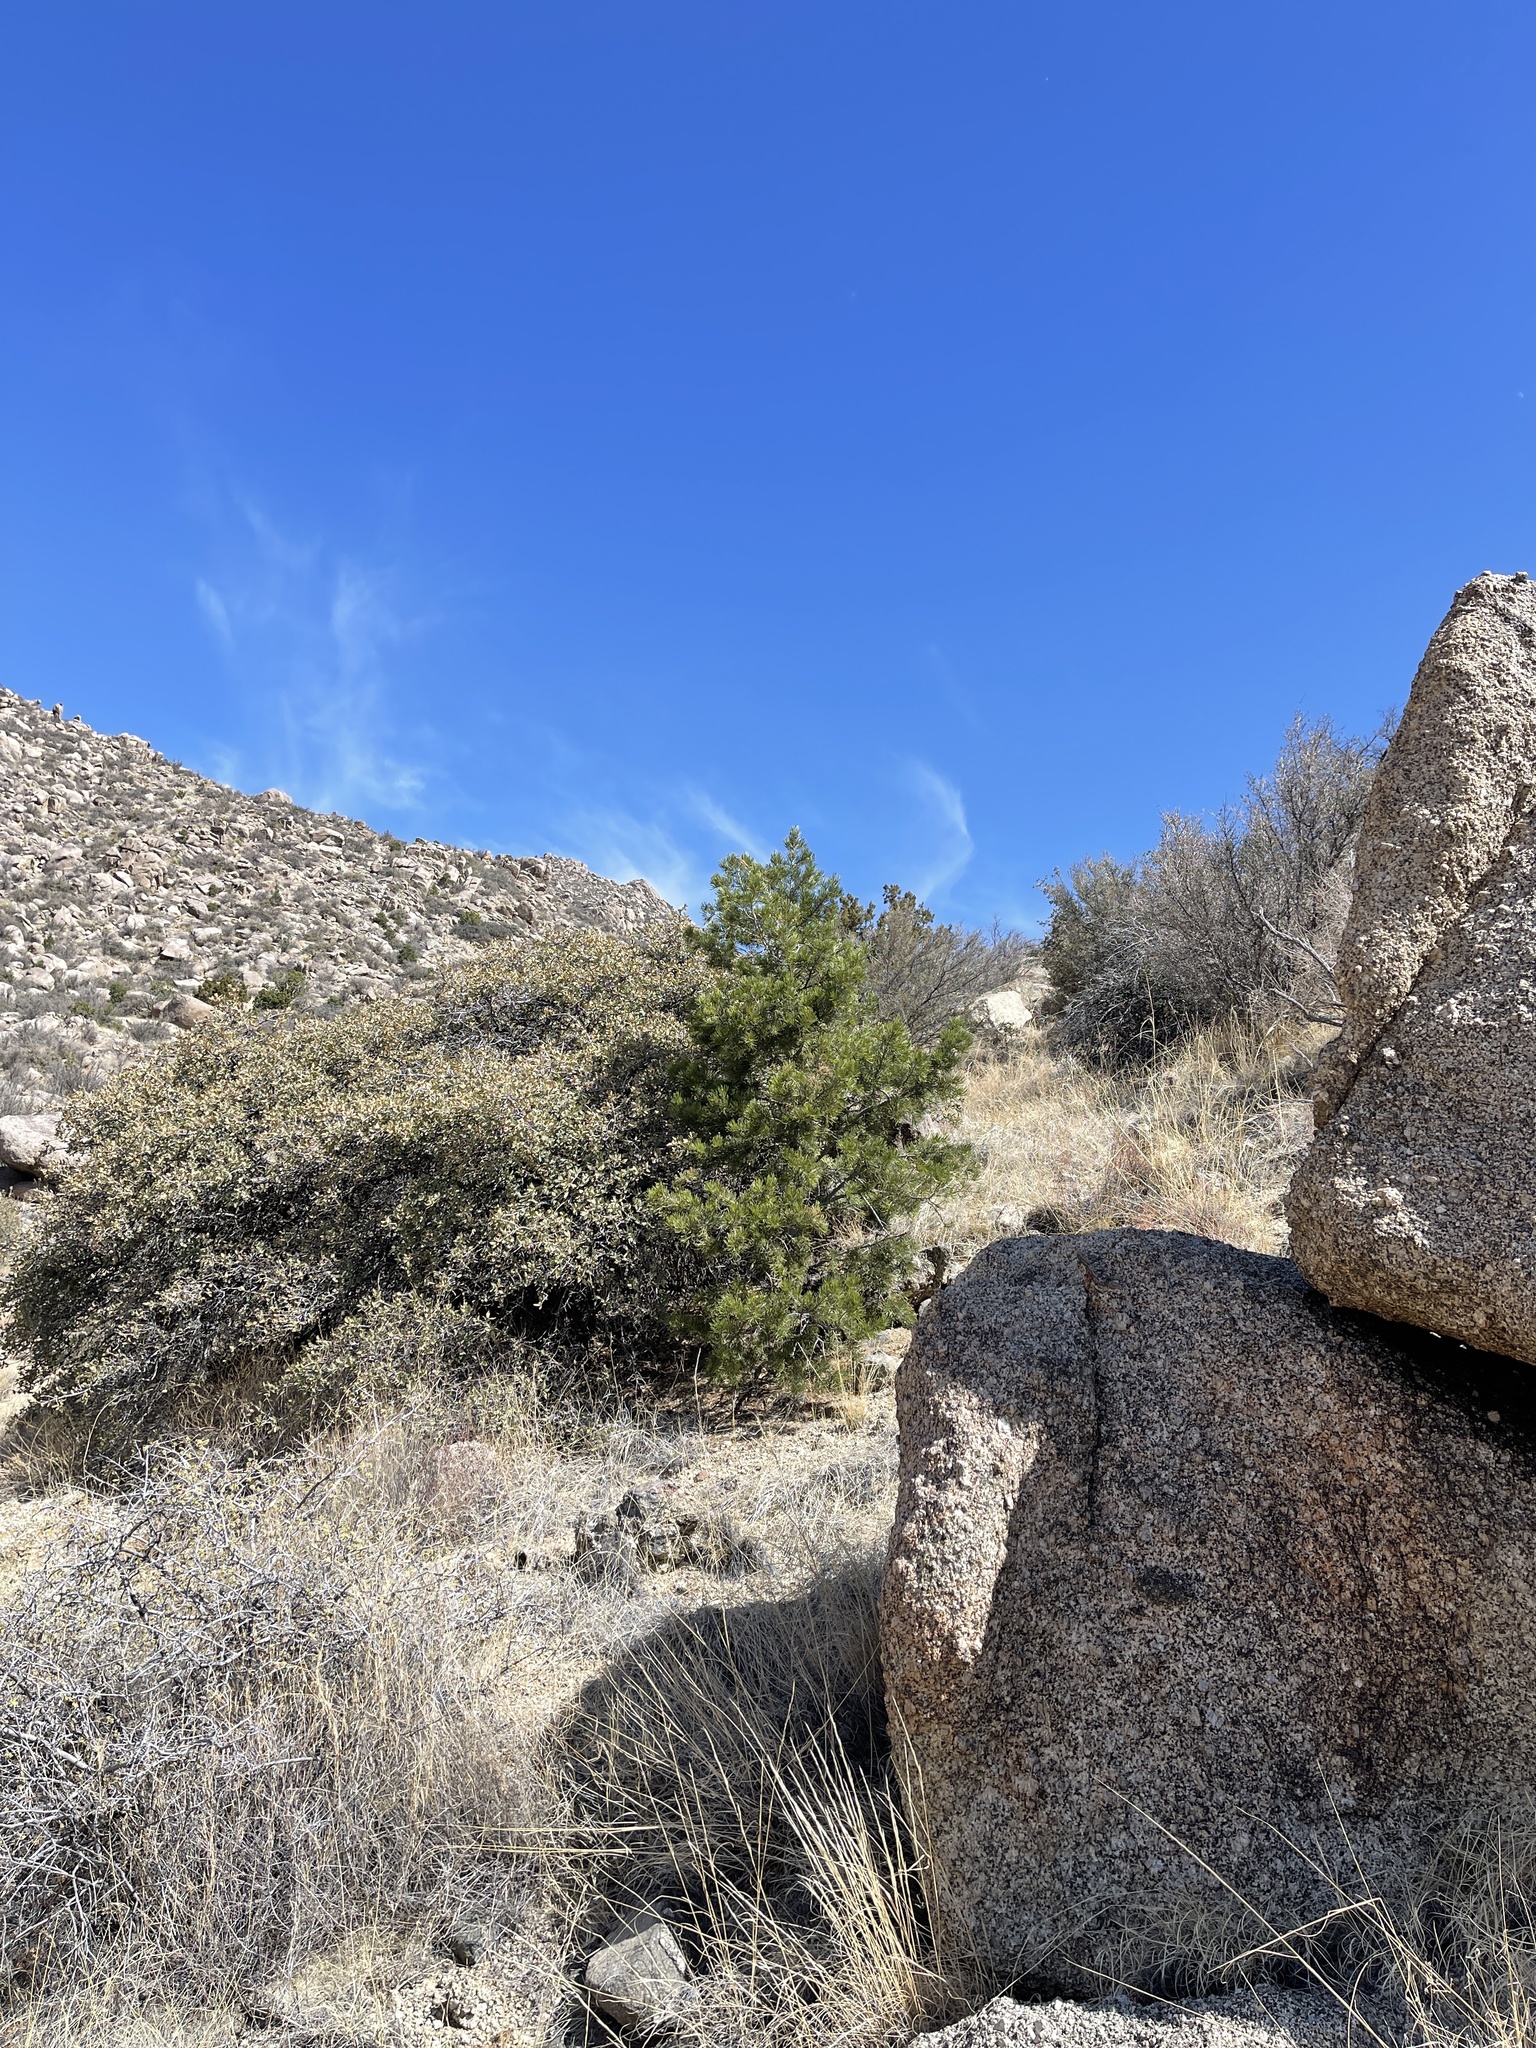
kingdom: Plantae
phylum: Tracheophyta
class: Pinopsida
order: Pinales
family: Pinaceae
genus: Pinus
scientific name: Pinus edulis
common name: Colorado pinyon
